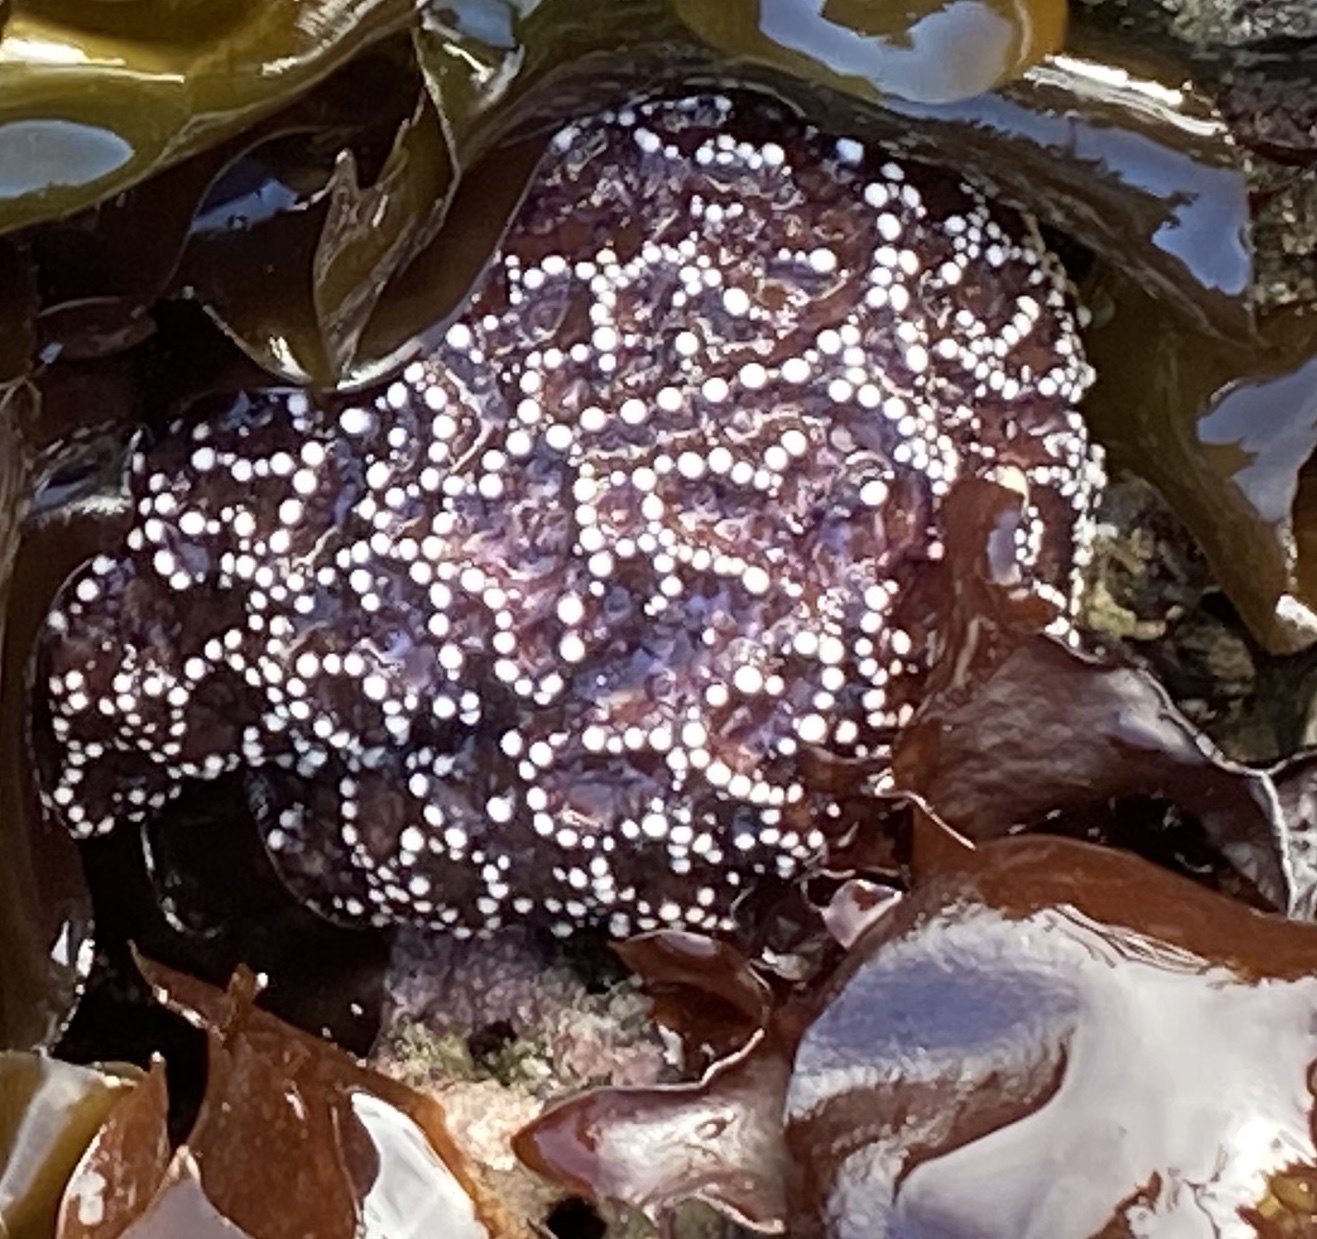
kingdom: Animalia
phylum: Echinodermata
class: Asteroidea
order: Forcipulatida
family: Asteriidae
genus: Pisaster
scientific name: Pisaster ochraceus
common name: Ochre stars
